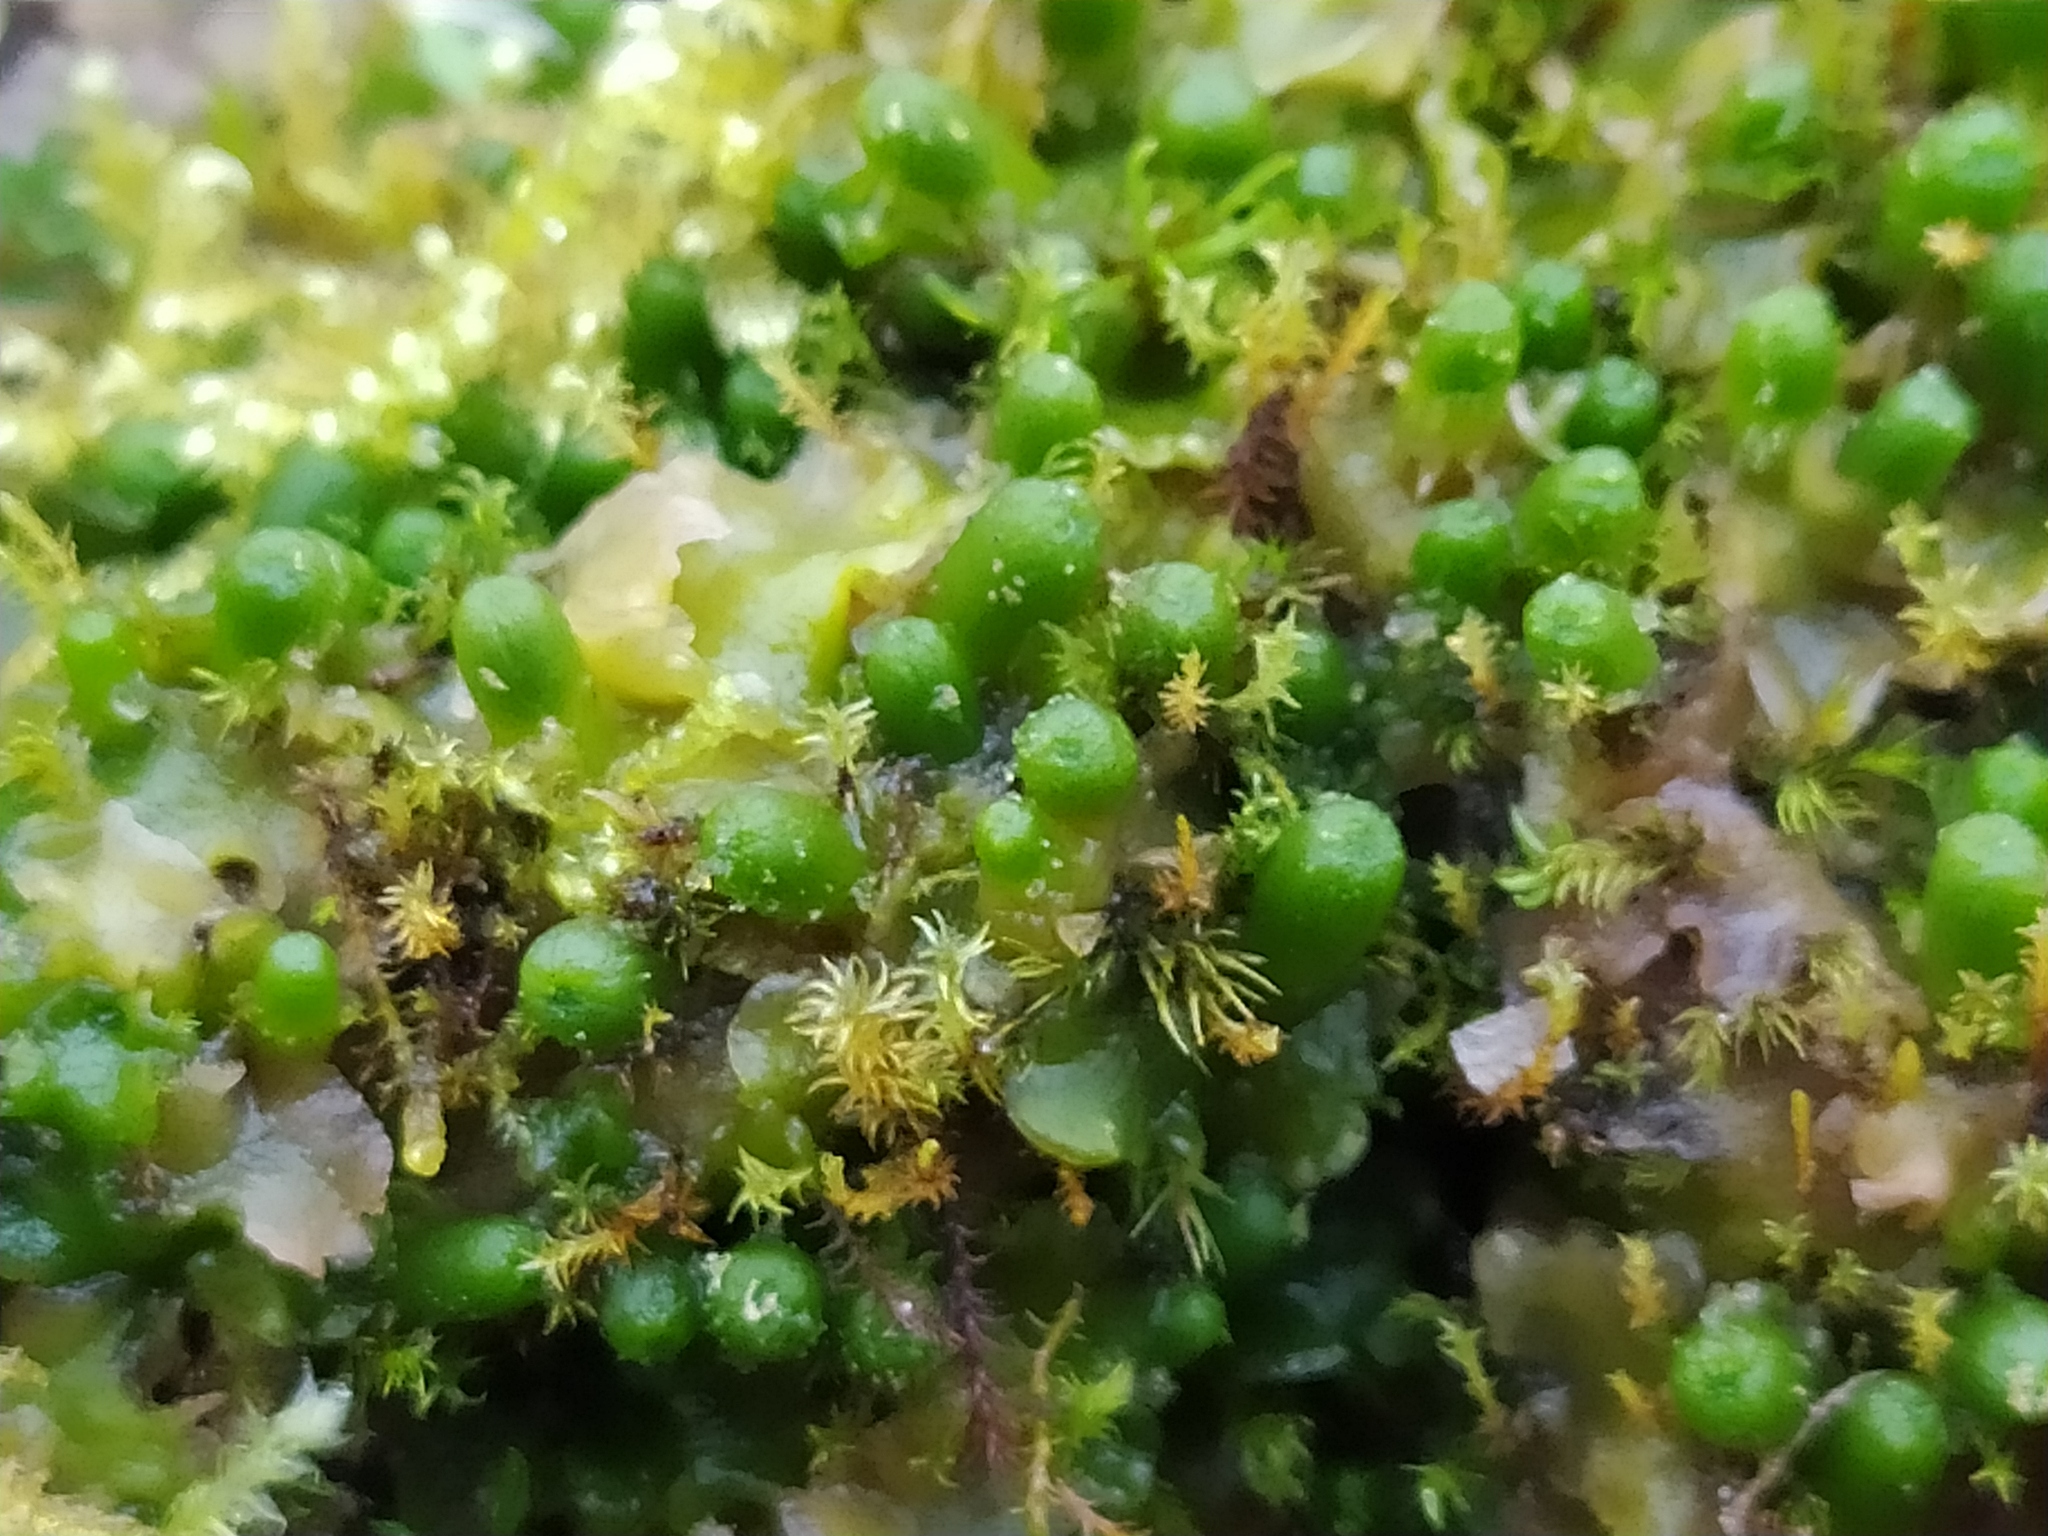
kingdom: Plantae
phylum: Marchantiophyta
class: Jungermanniopsida
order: Metzgeriales
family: Aneuraceae
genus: Aneura
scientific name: Aneura pinguis
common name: Common greasewort
